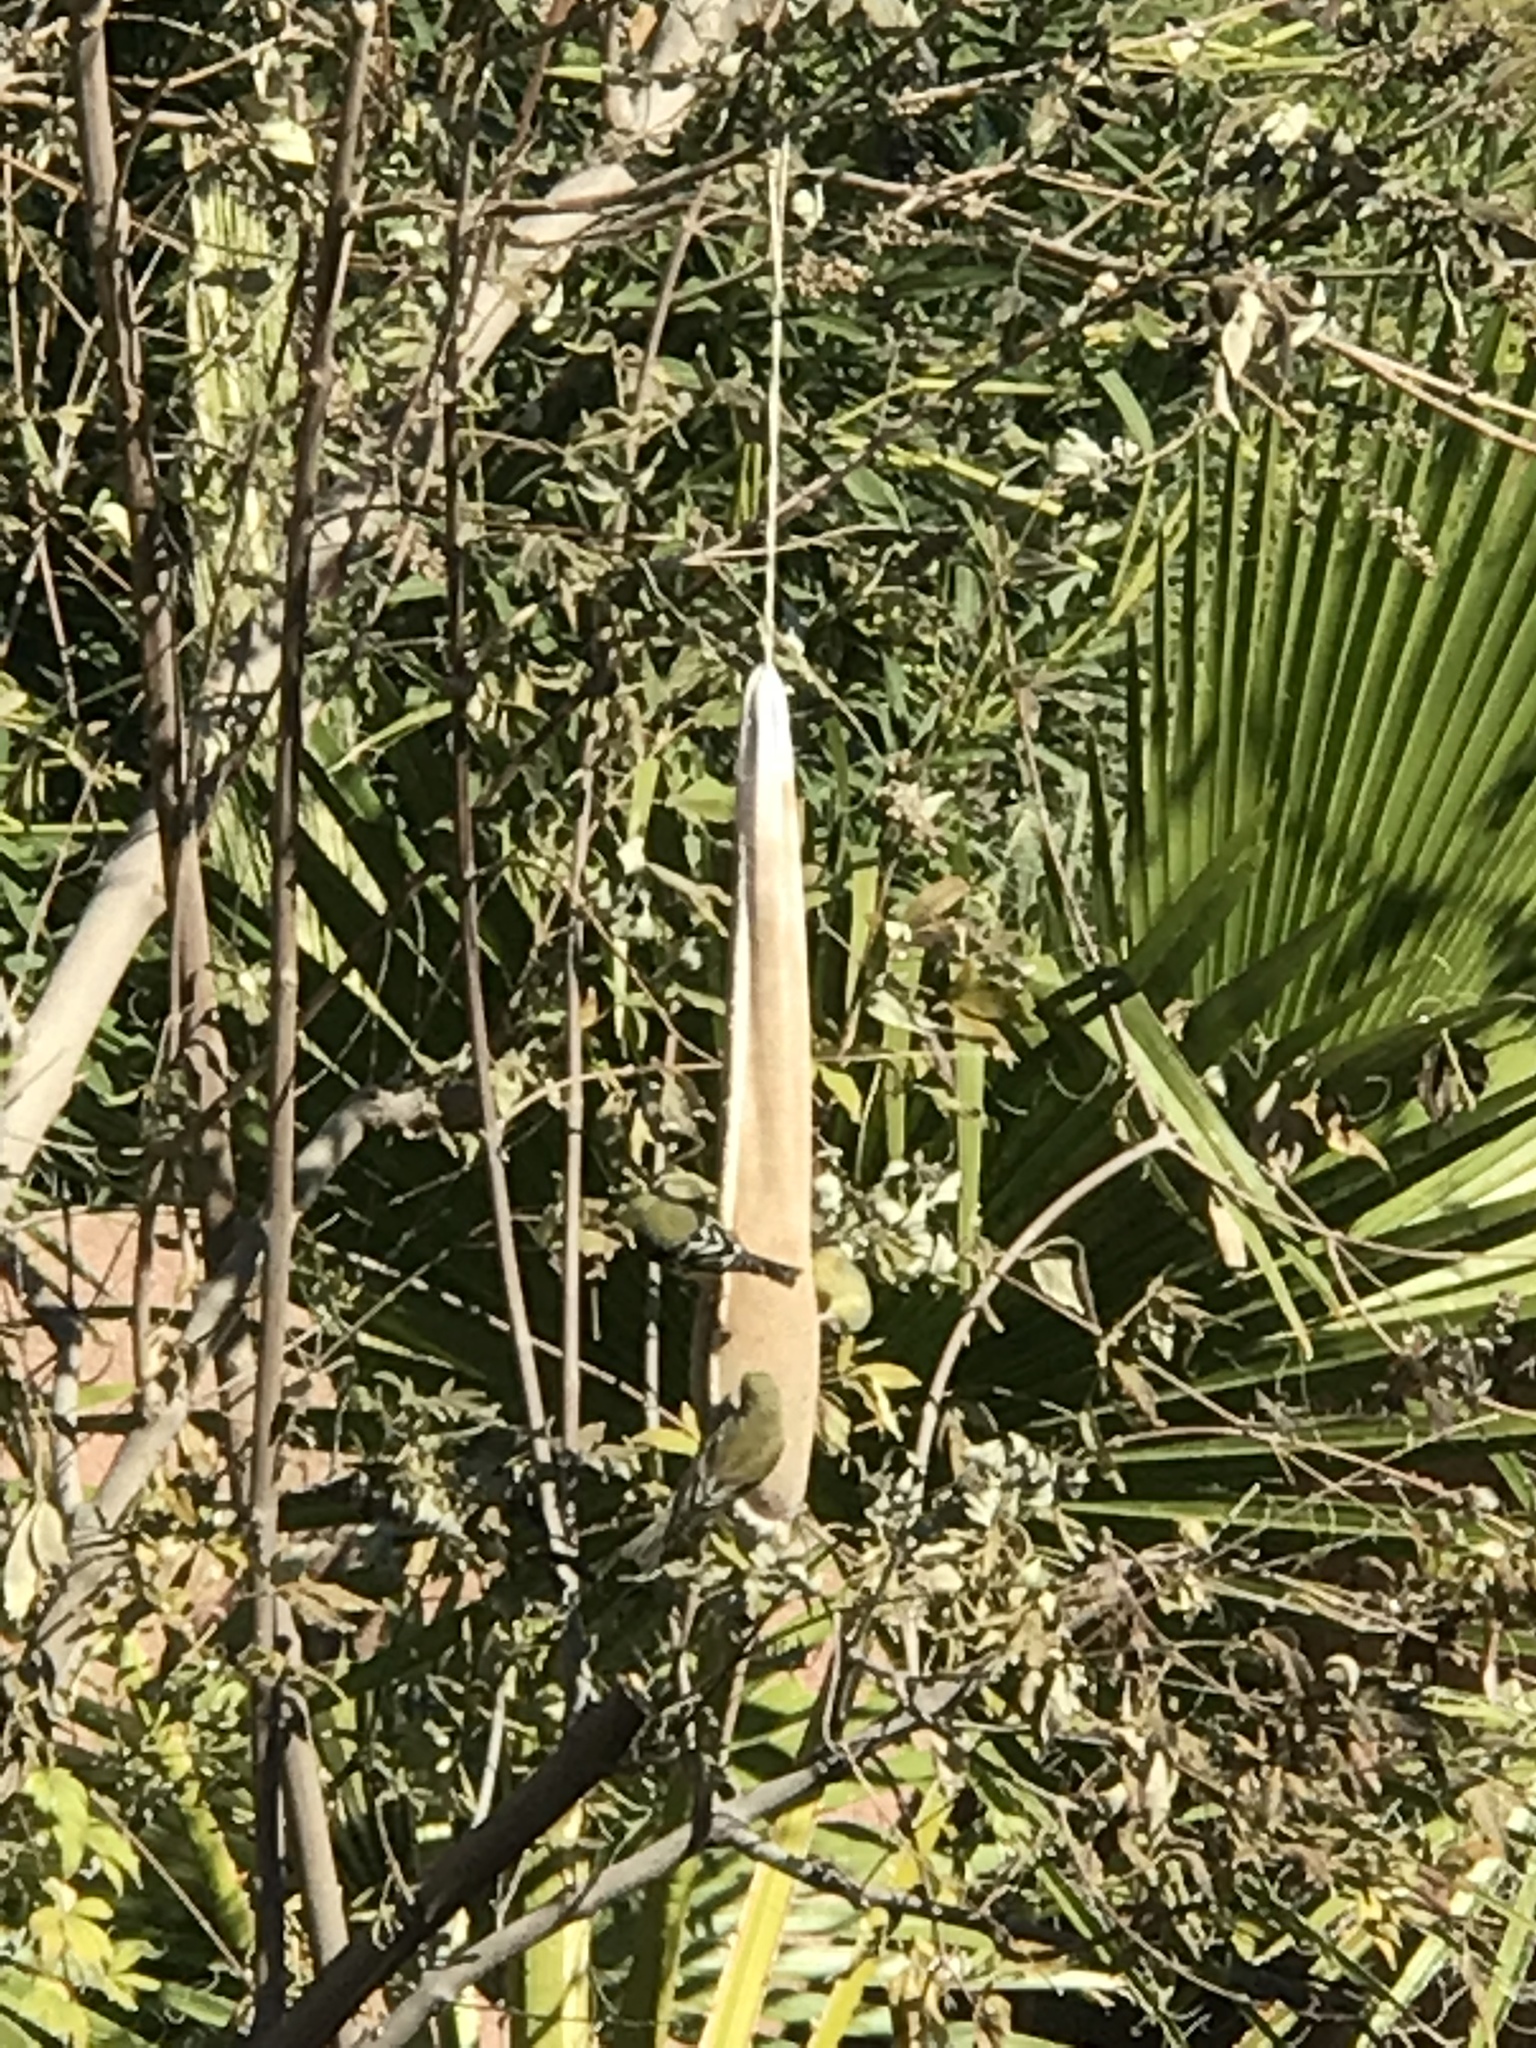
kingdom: Animalia
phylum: Chordata
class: Aves
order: Passeriformes
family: Fringillidae
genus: Spinus
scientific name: Spinus psaltria
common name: Lesser goldfinch
